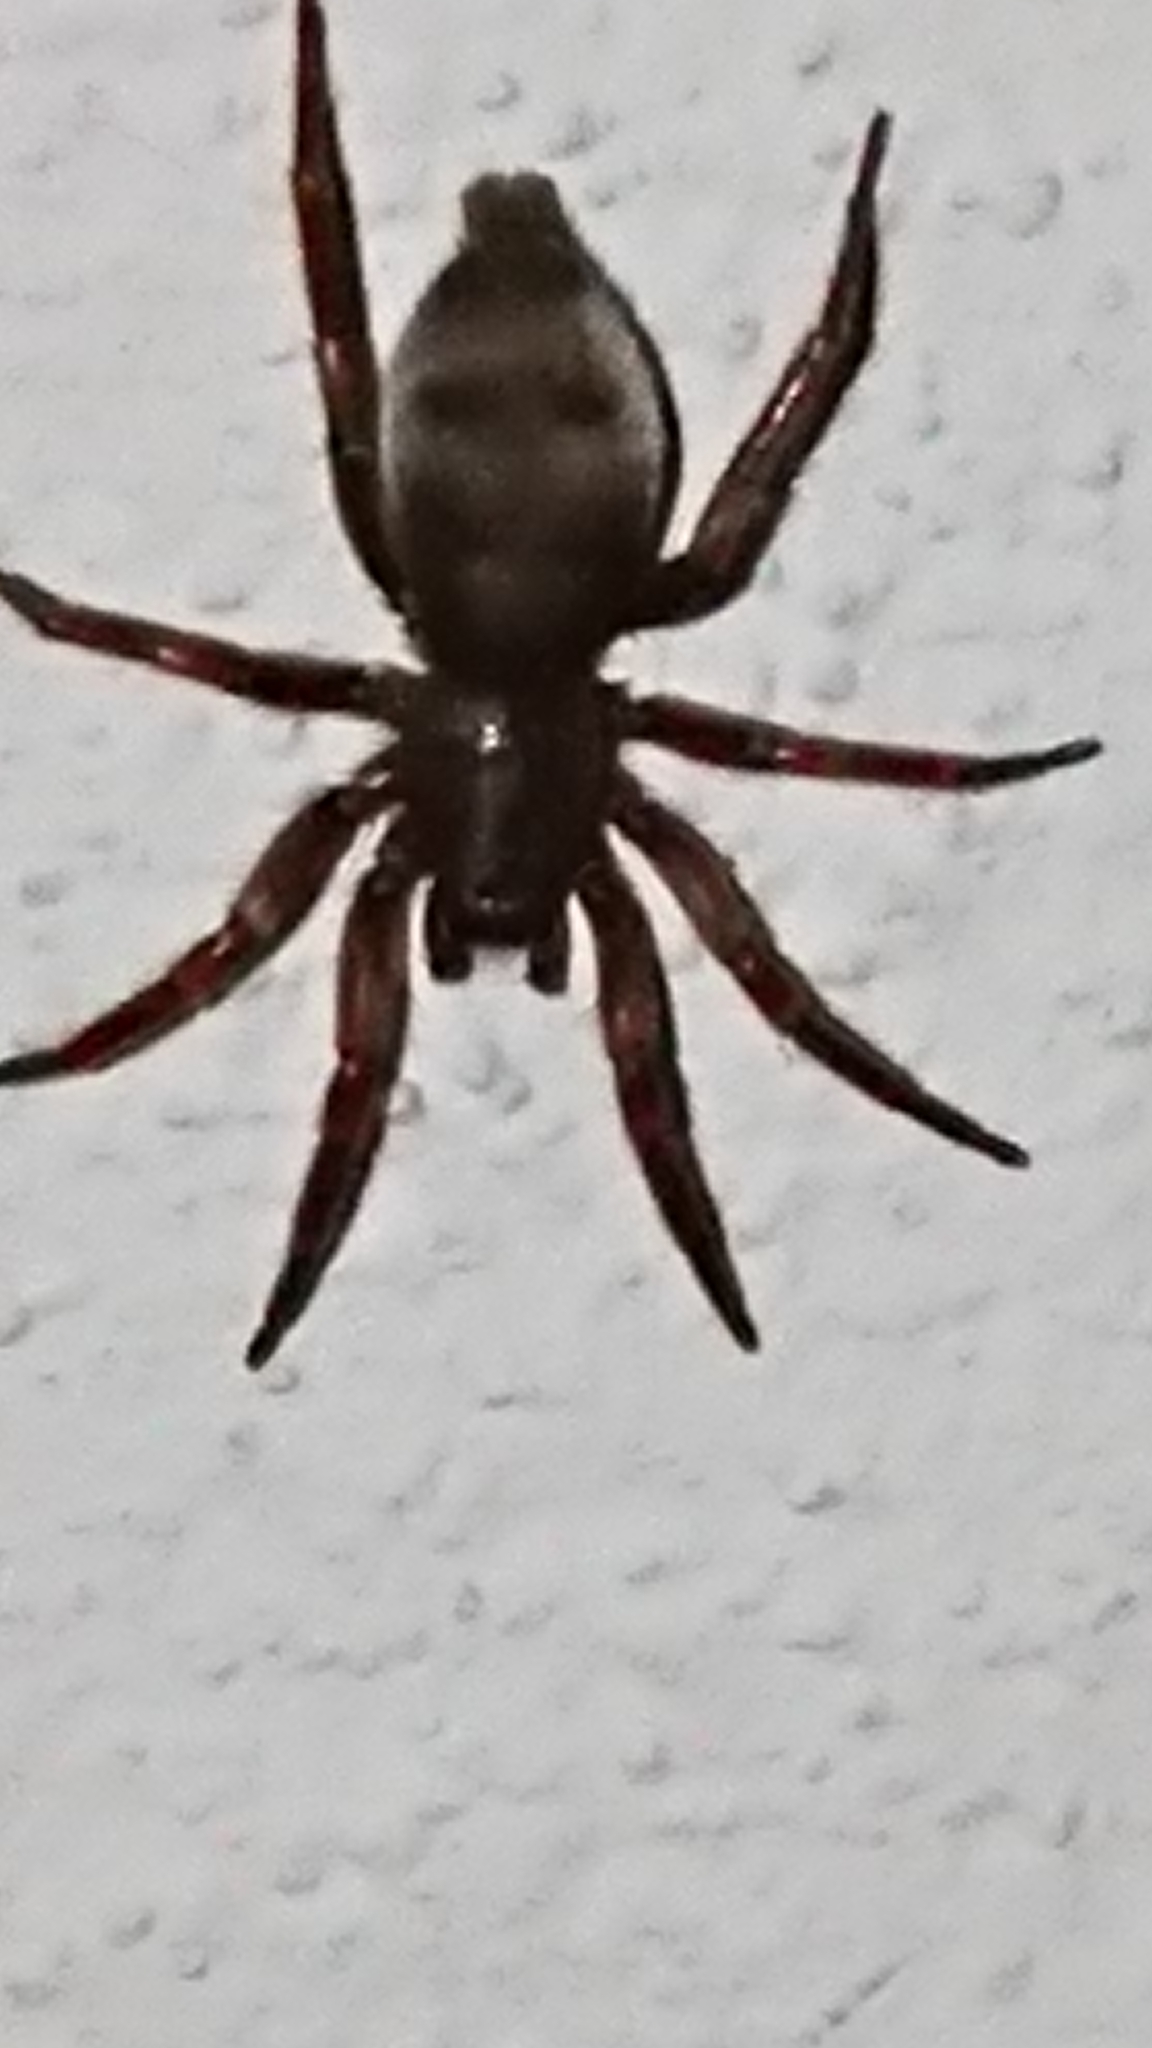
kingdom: Animalia
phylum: Arthropoda
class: Arachnida
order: Araneae
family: Gnaphosidae
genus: Scotophaeus
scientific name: Scotophaeus blackwalli
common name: Mouse spider
